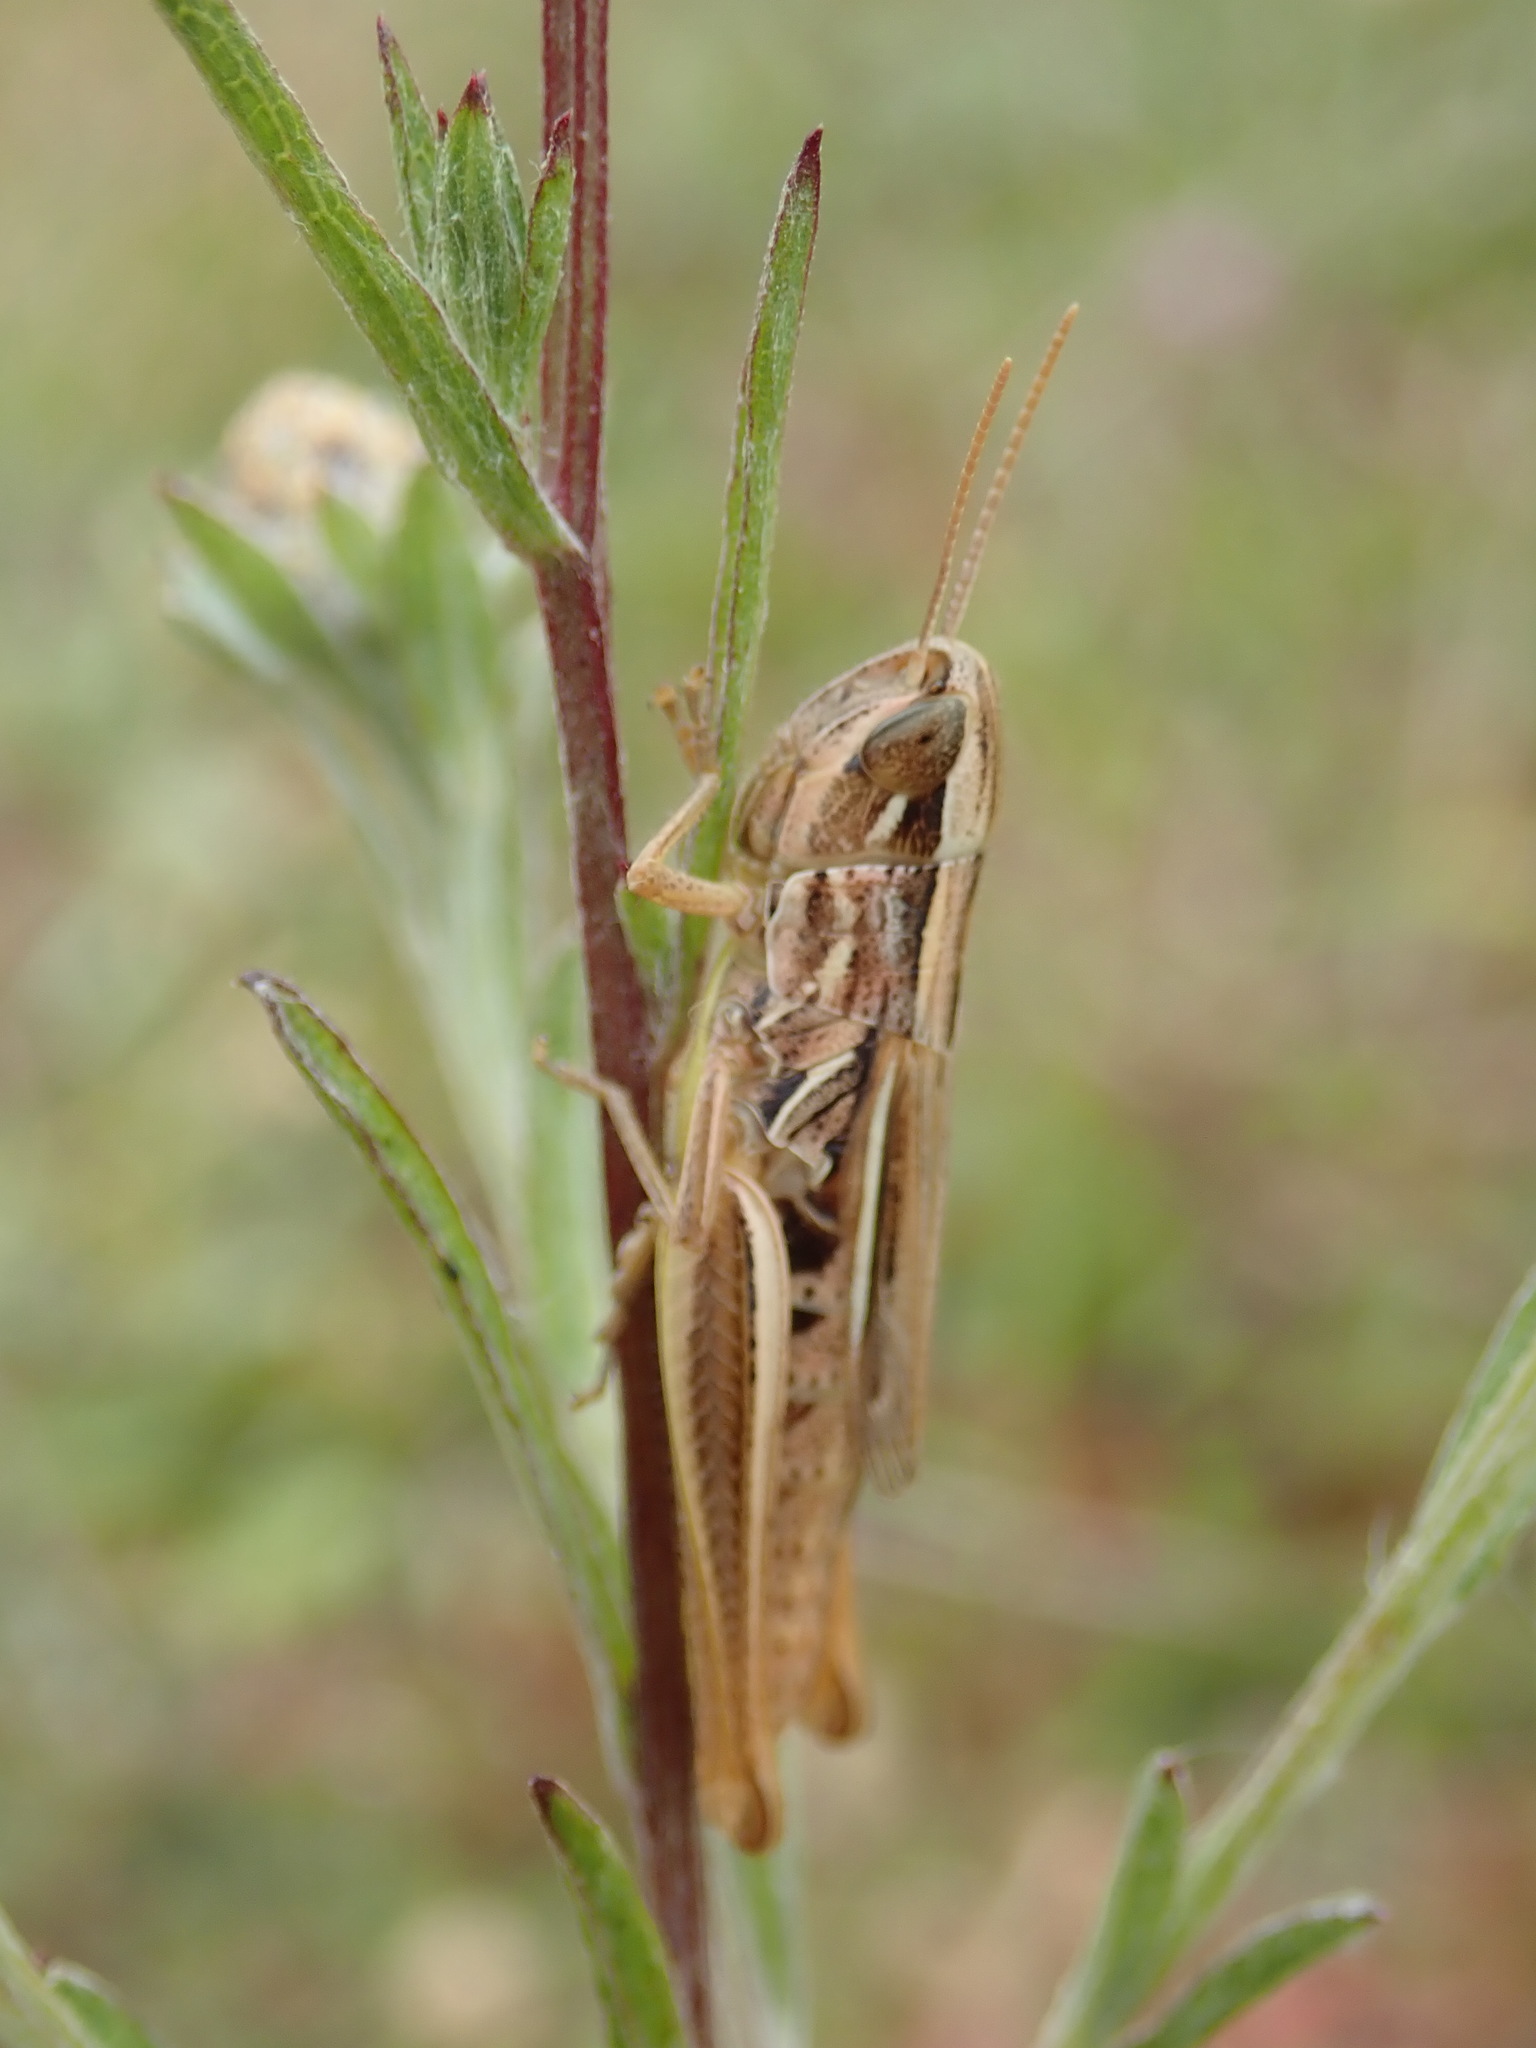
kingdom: Animalia
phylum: Arthropoda
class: Insecta
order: Orthoptera
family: Acrididae
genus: Euchorthippus
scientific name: Euchorthippus declivus
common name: Common straw grasshopper
